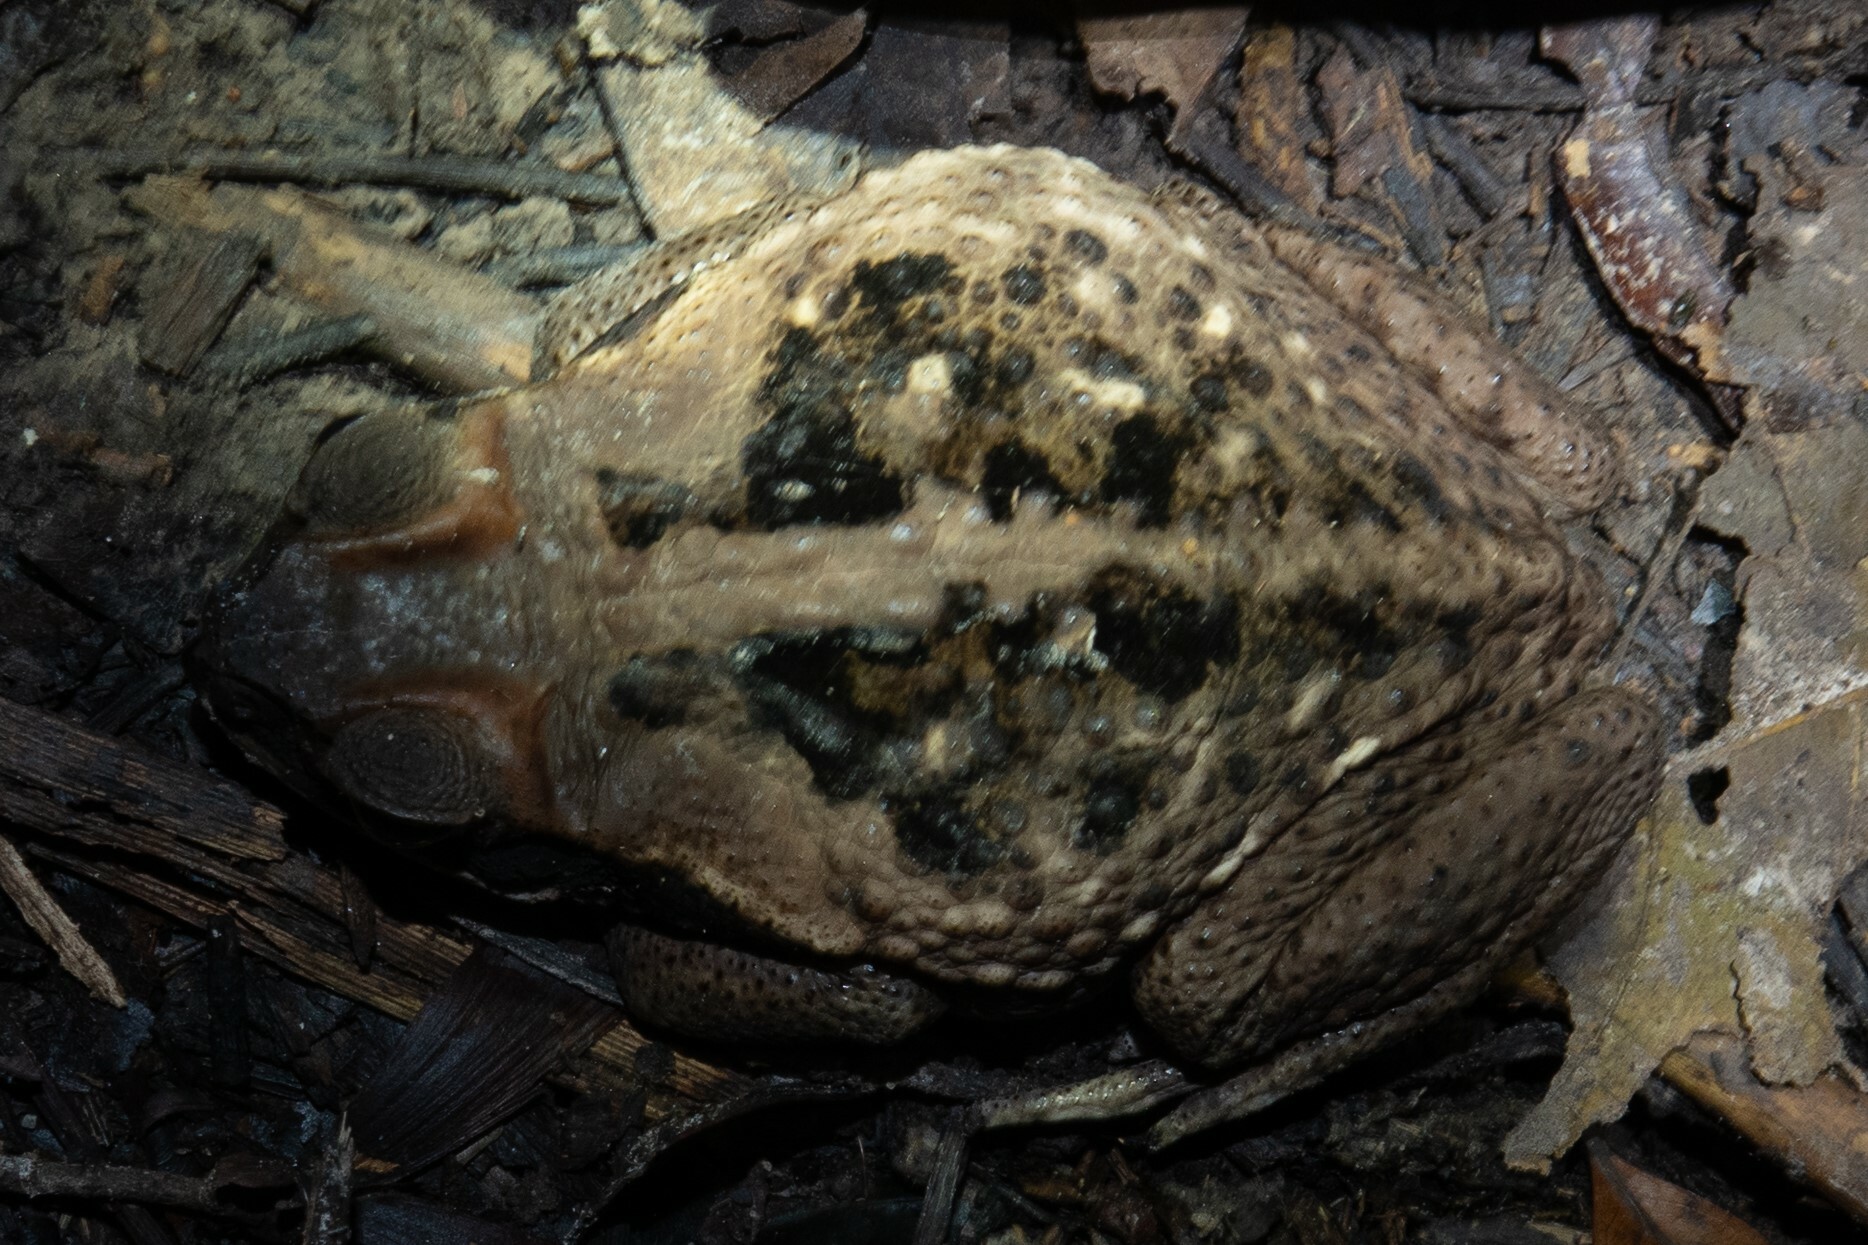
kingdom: Animalia
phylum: Chordata
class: Amphibia
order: Anura
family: Bufonidae
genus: Rhinella
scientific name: Rhinella marina
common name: Cane toad
